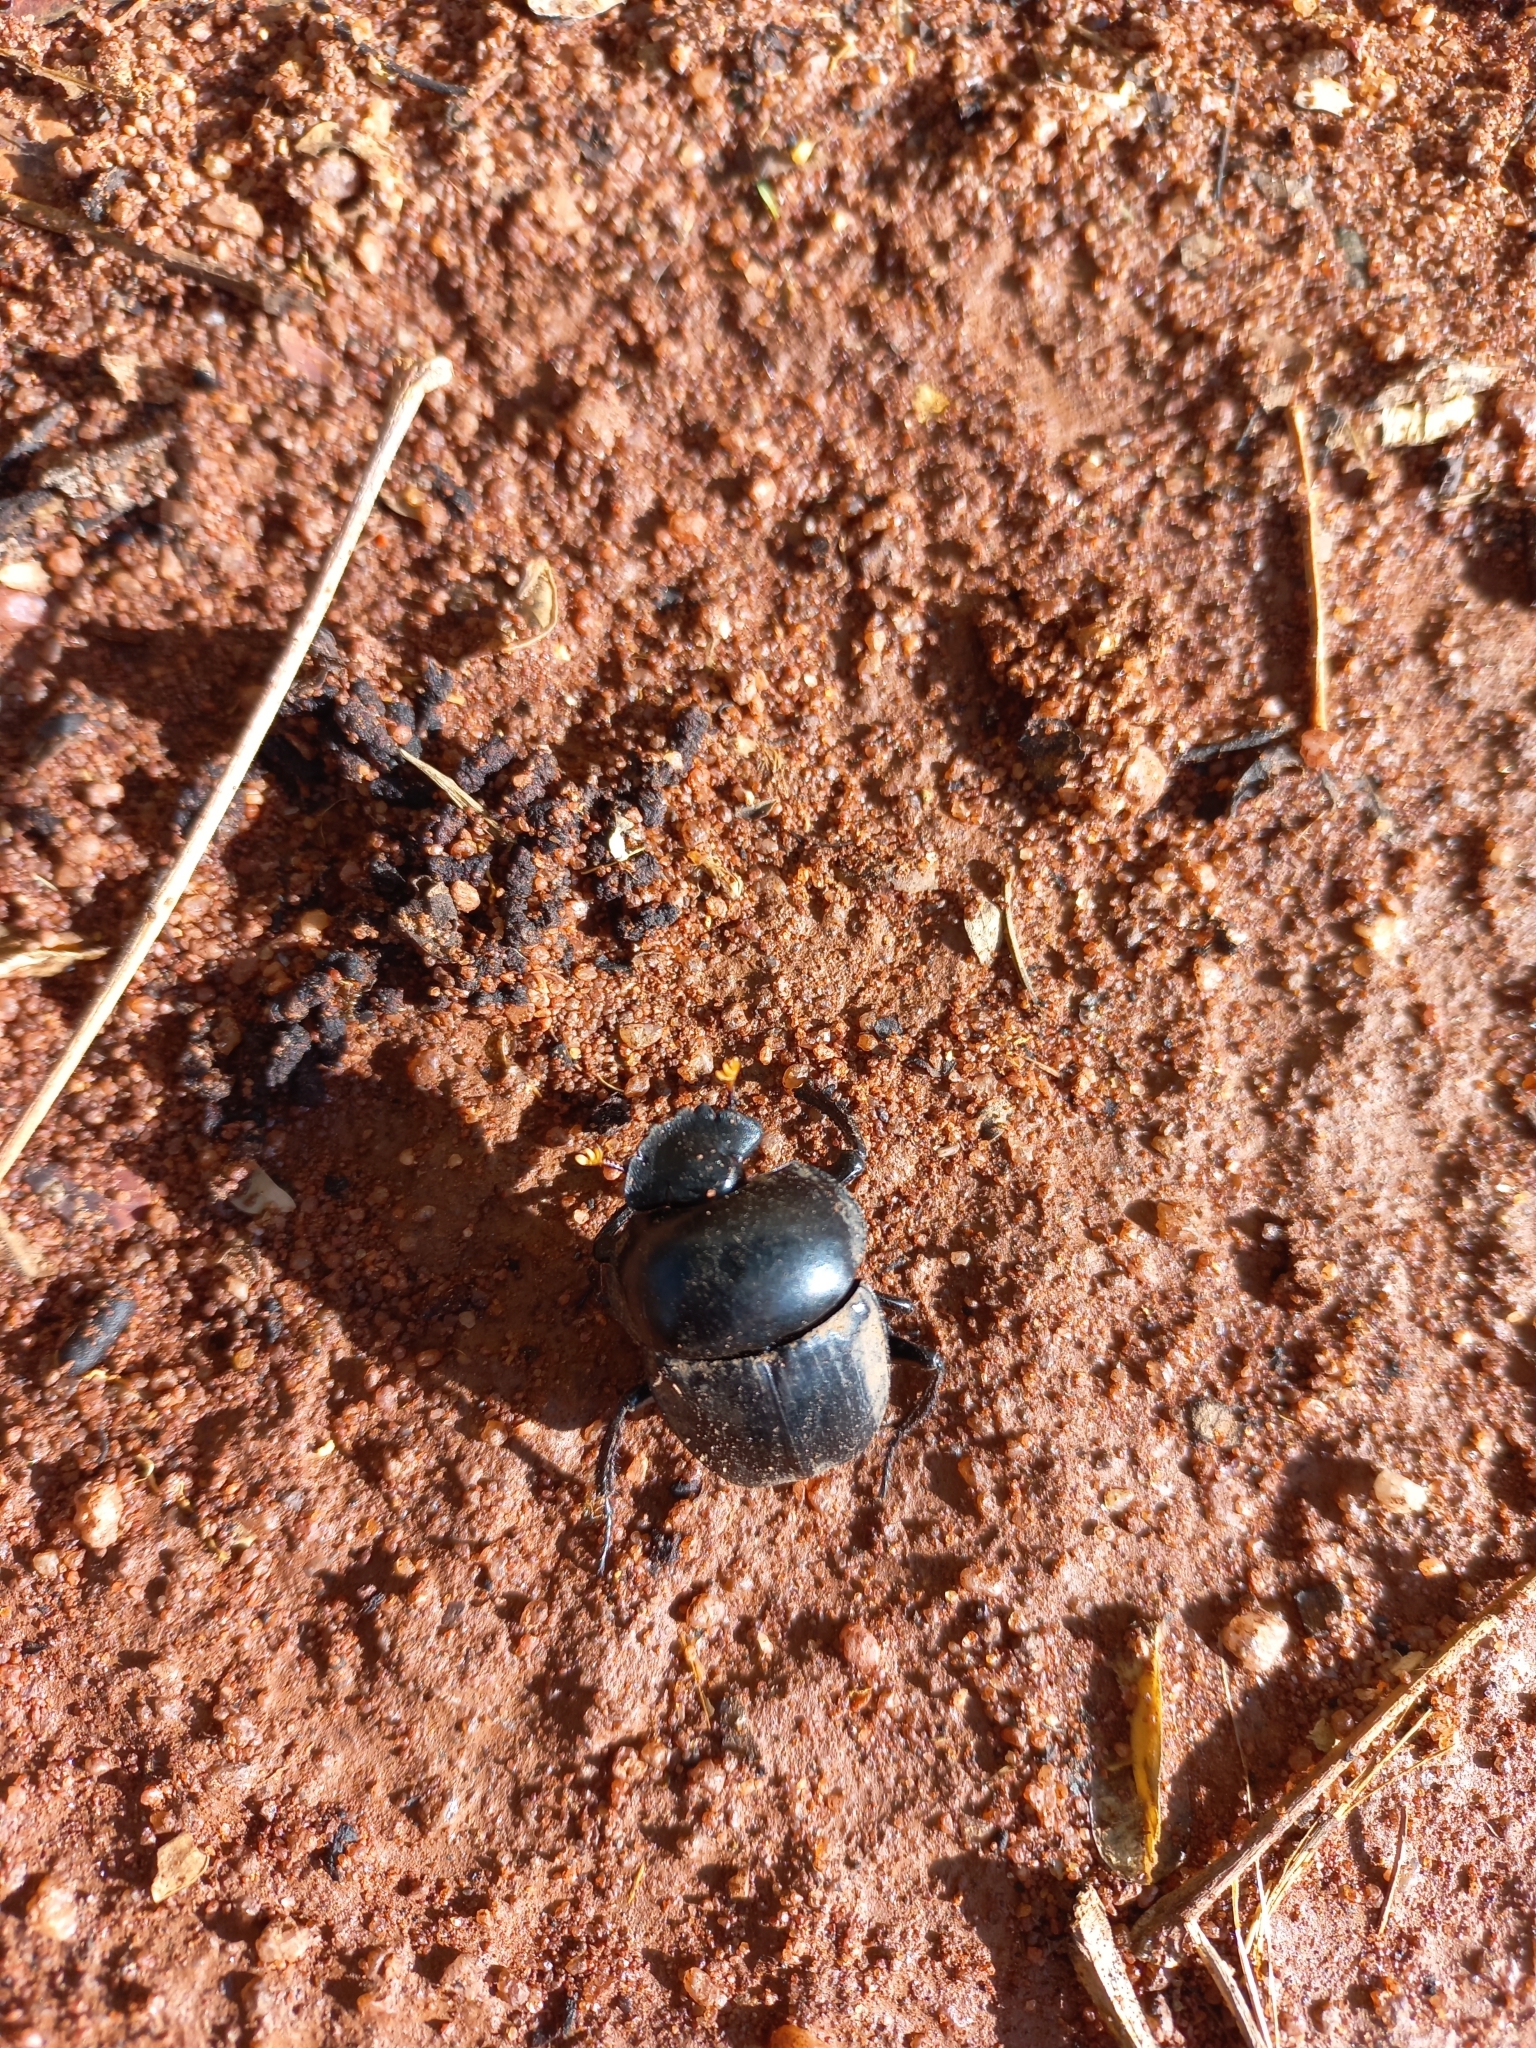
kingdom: Animalia
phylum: Arthropoda
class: Insecta
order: Coleoptera
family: Scarabaeidae
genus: Scarabaeus
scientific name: Scarabaeus rusticus
